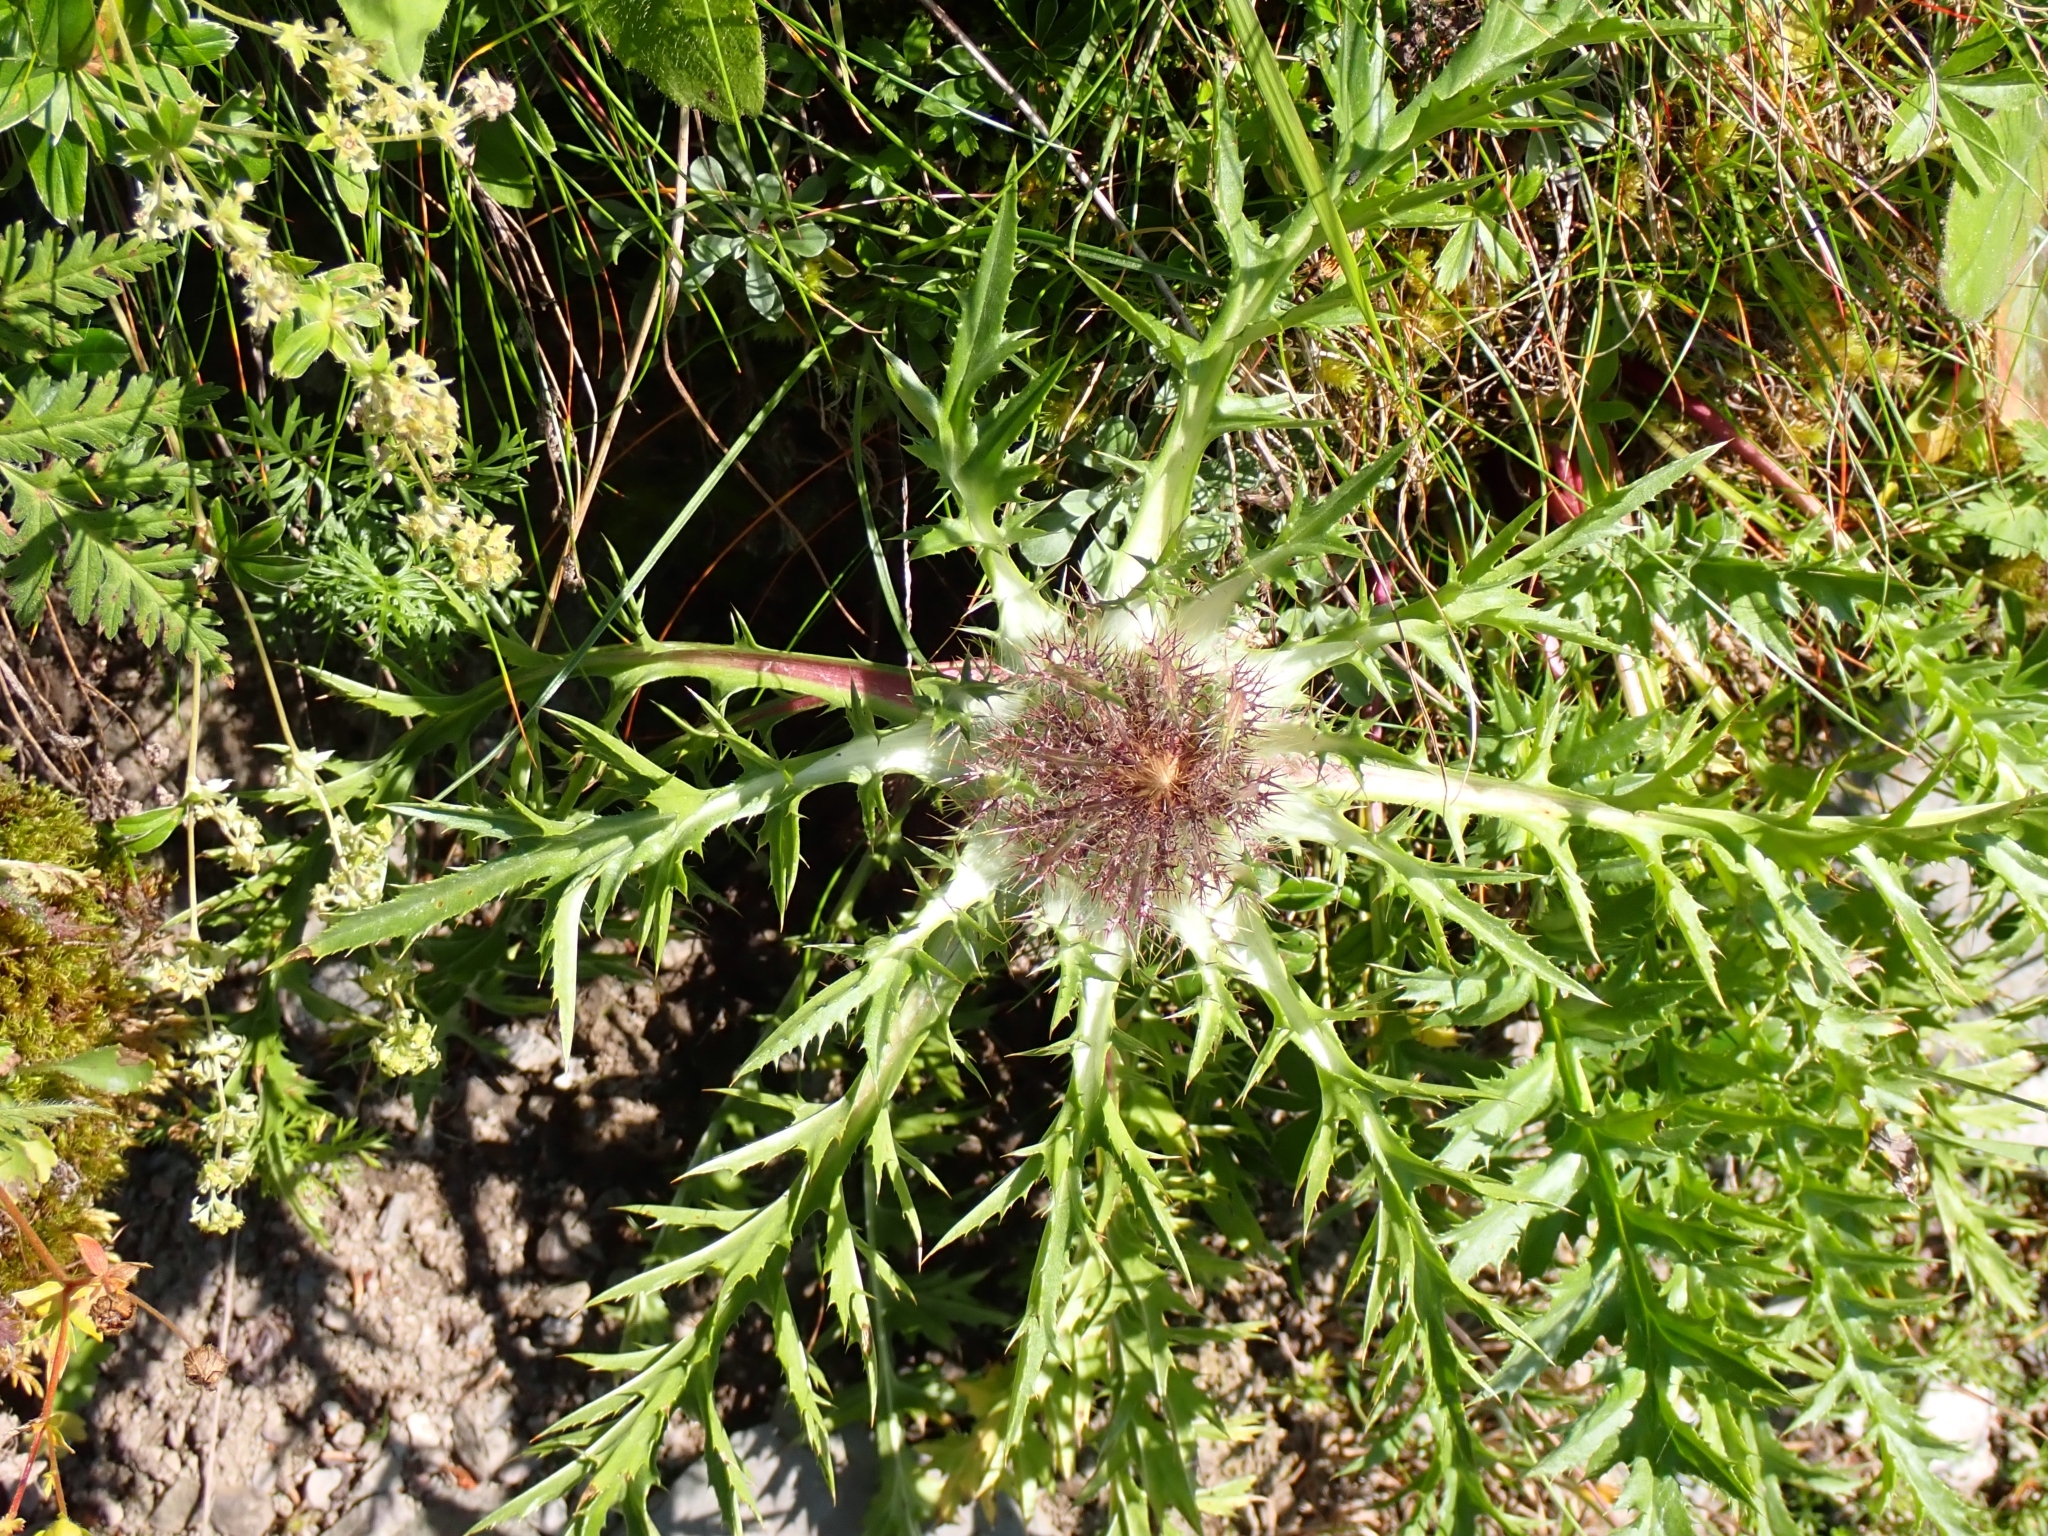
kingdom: Plantae
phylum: Tracheophyta
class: Magnoliopsida
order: Asterales
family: Asteraceae
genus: Carlina
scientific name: Carlina acaulis
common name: Stemless carline thistle
